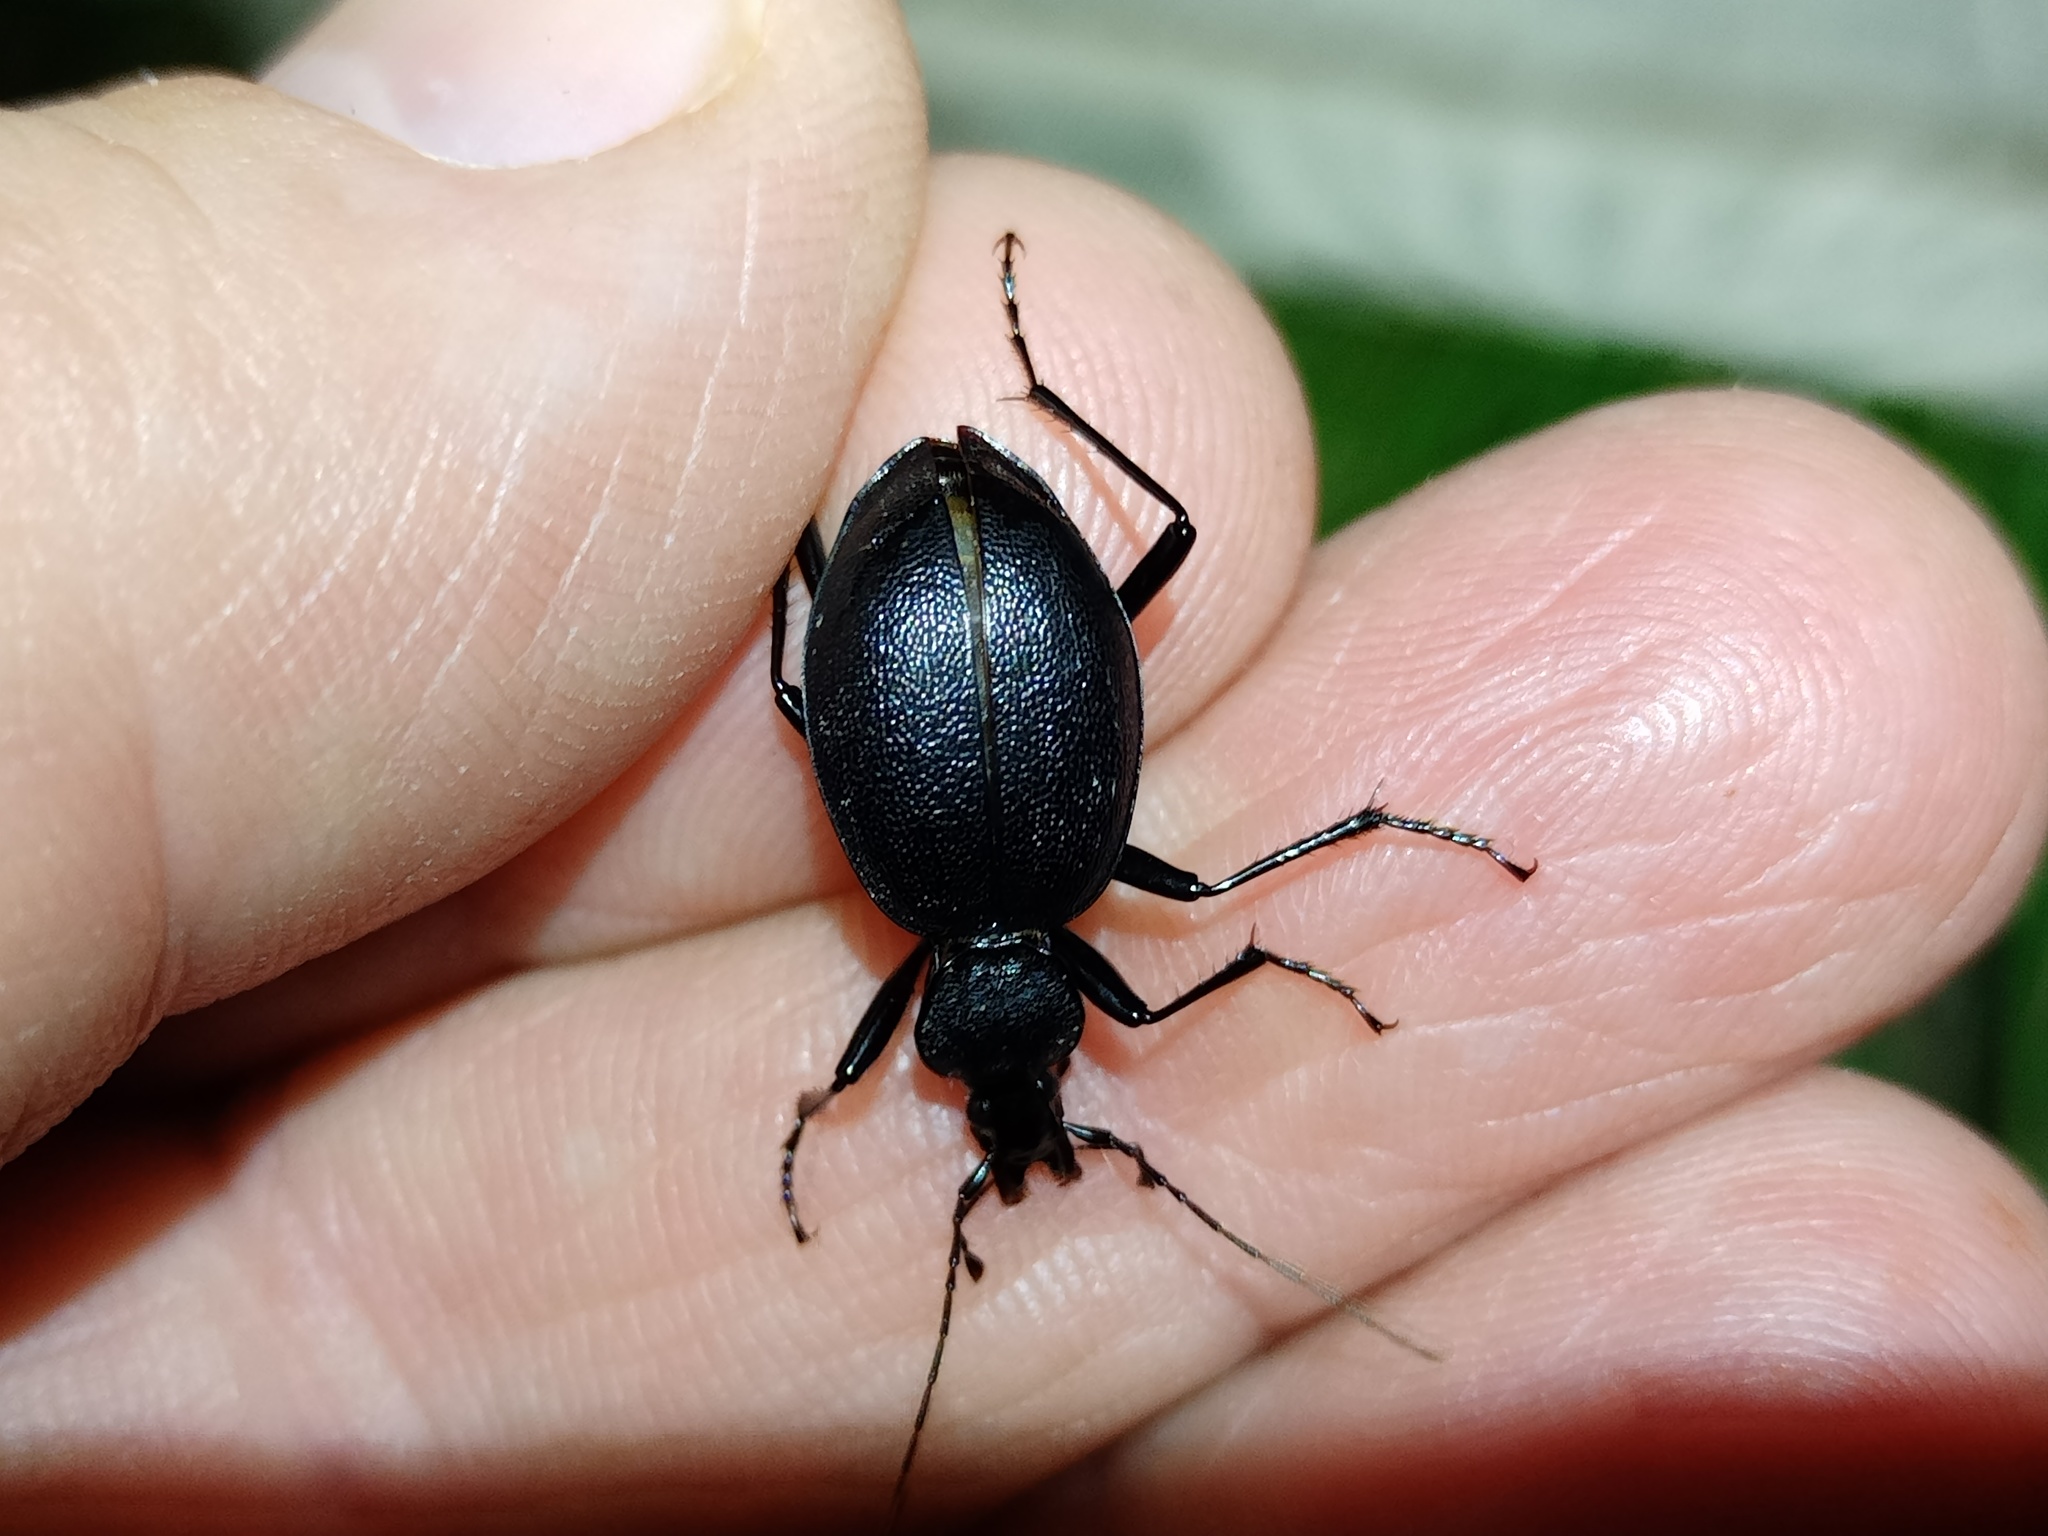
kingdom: Animalia
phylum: Arthropoda
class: Insecta
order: Coleoptera
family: Carabidae
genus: Cychrus
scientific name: Cychrus caraboides
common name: Snail hunter
